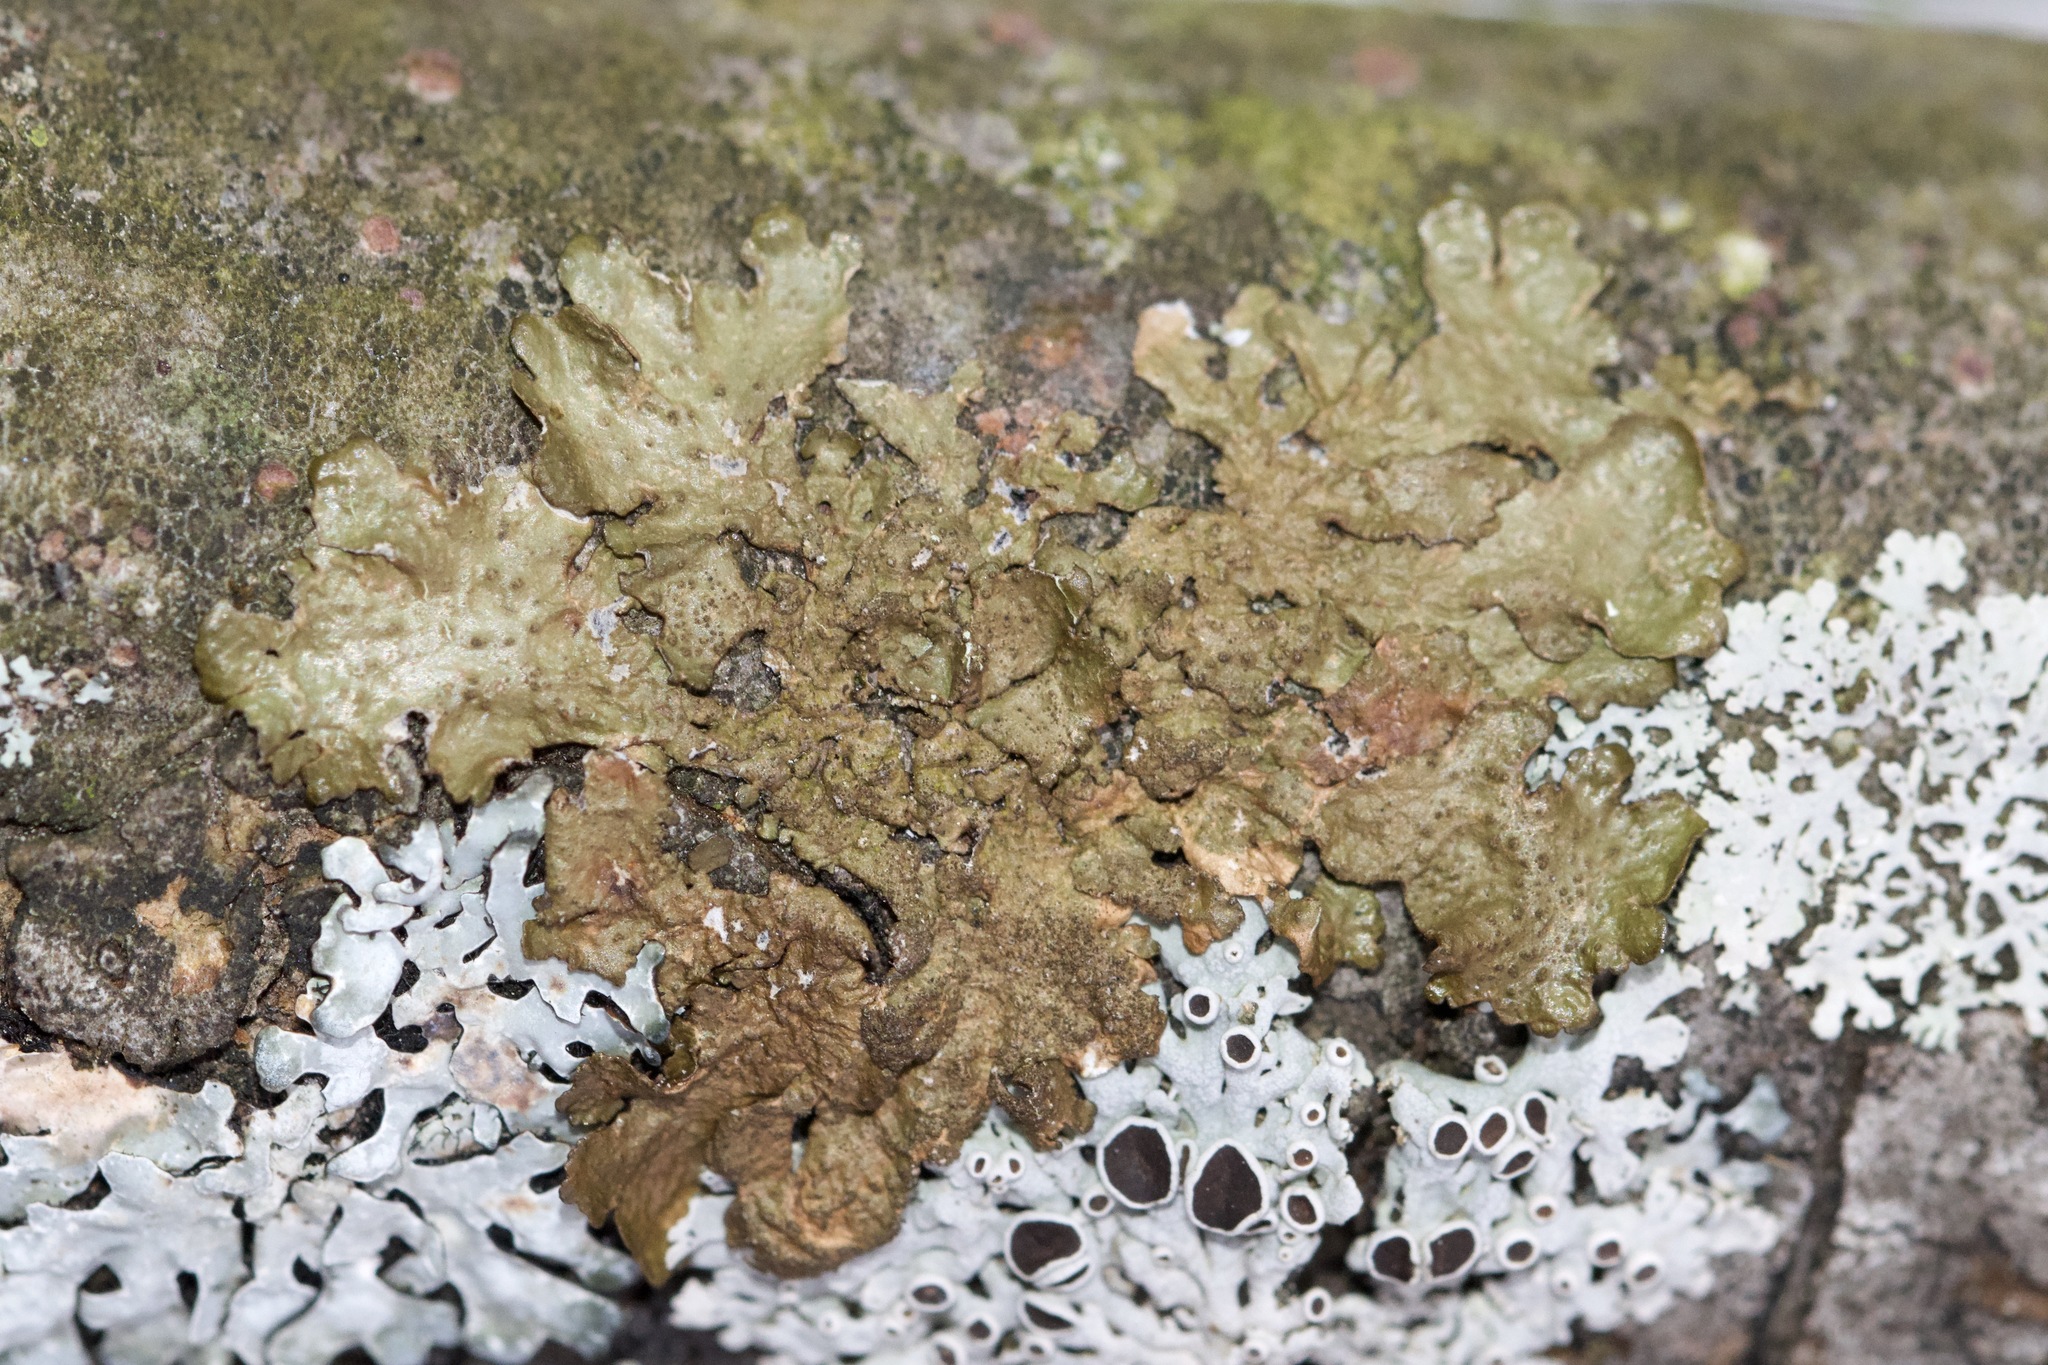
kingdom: Fungi
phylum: Ascomycota
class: Lecanoromycetes
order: Lecanorales
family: Parmeliaceae
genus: Melanelixia
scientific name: Melanelixia subaurifera
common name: Abraded camouflage lichen
